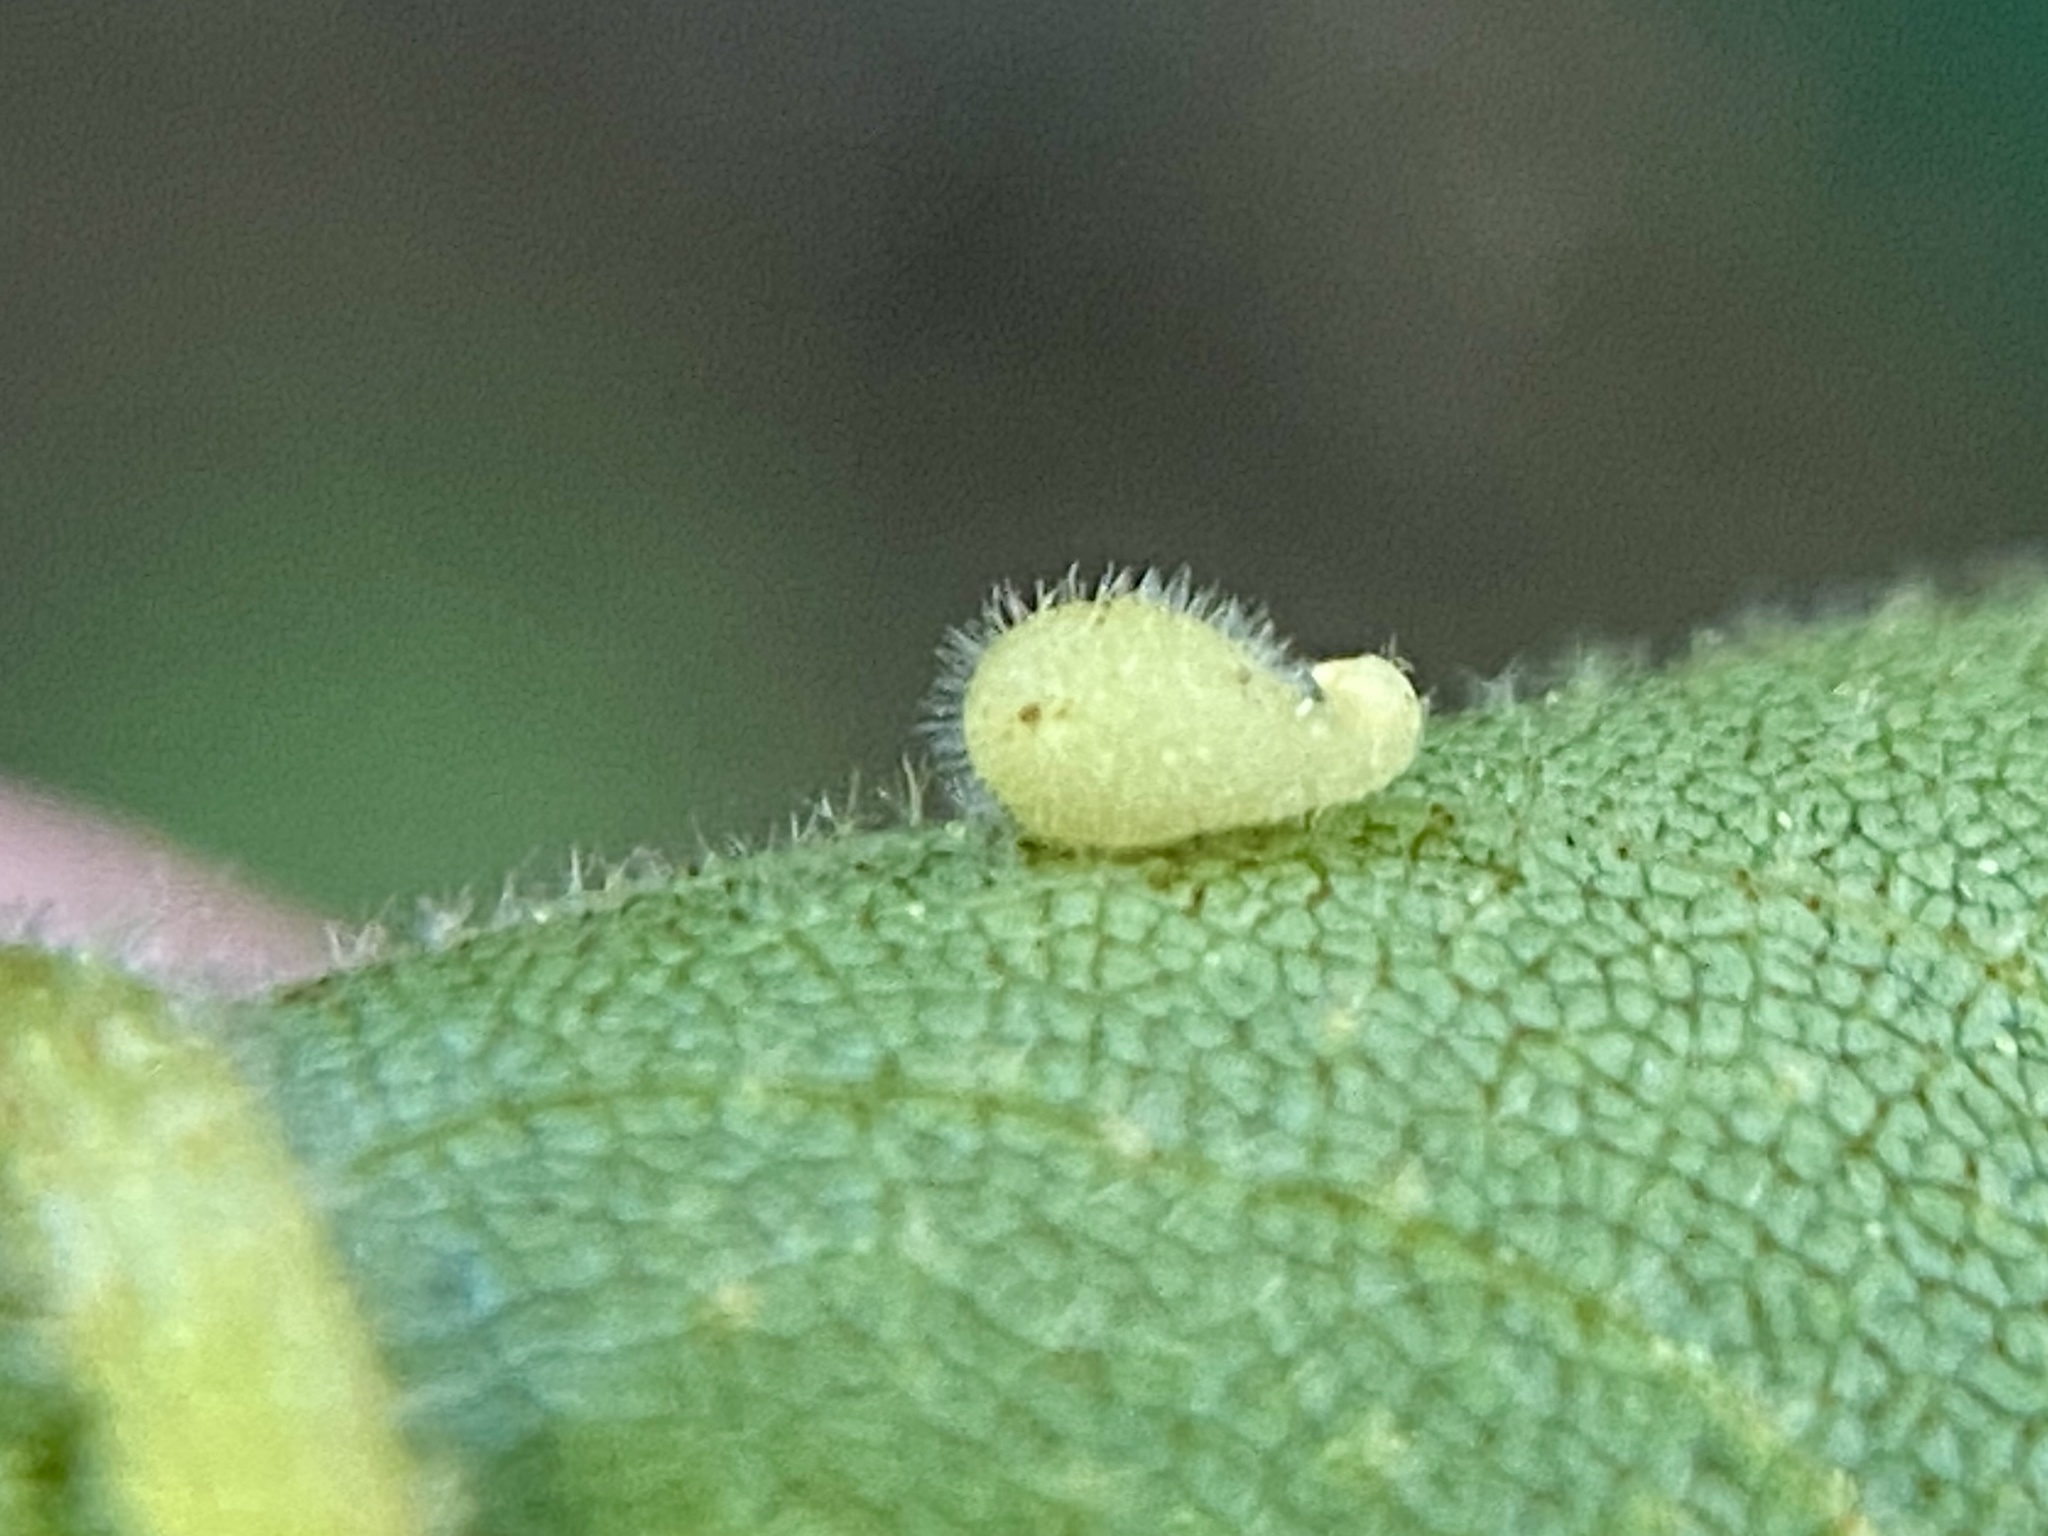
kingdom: Animalia
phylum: Arthropoda
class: Insecta
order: Diptera
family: Cecidomyiidae
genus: Caryomyia
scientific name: Caryomyia eumaris
